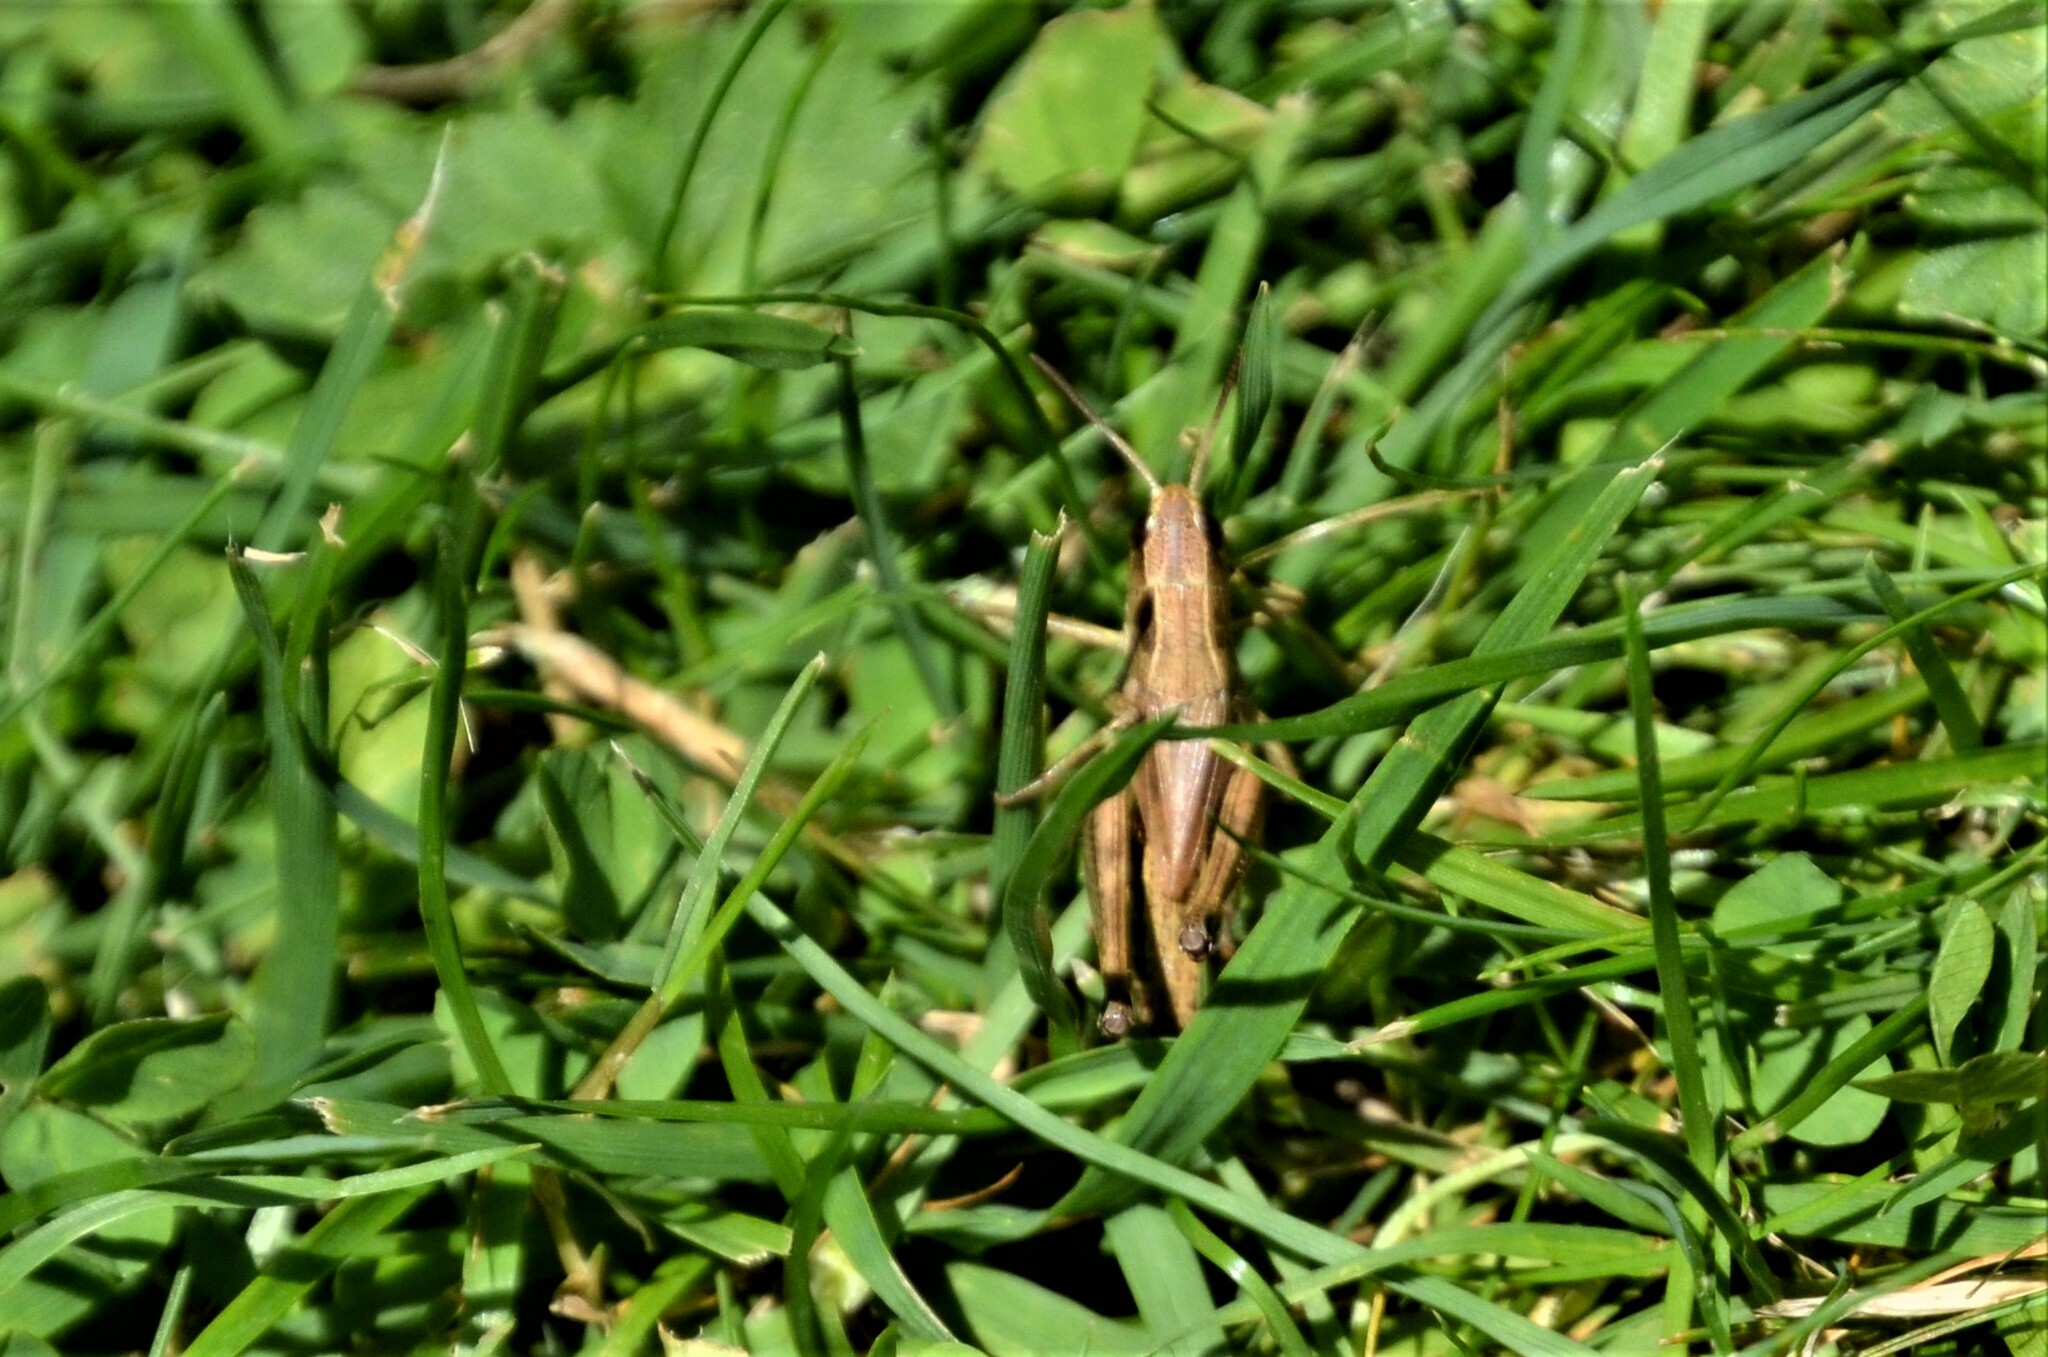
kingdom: Animalia
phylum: Arthropoda
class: Insecta
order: Orthoptera
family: Acrididae
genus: Pseudochorthippus
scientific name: Pseudochorthippus parallelus
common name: Meadow grasshopper
